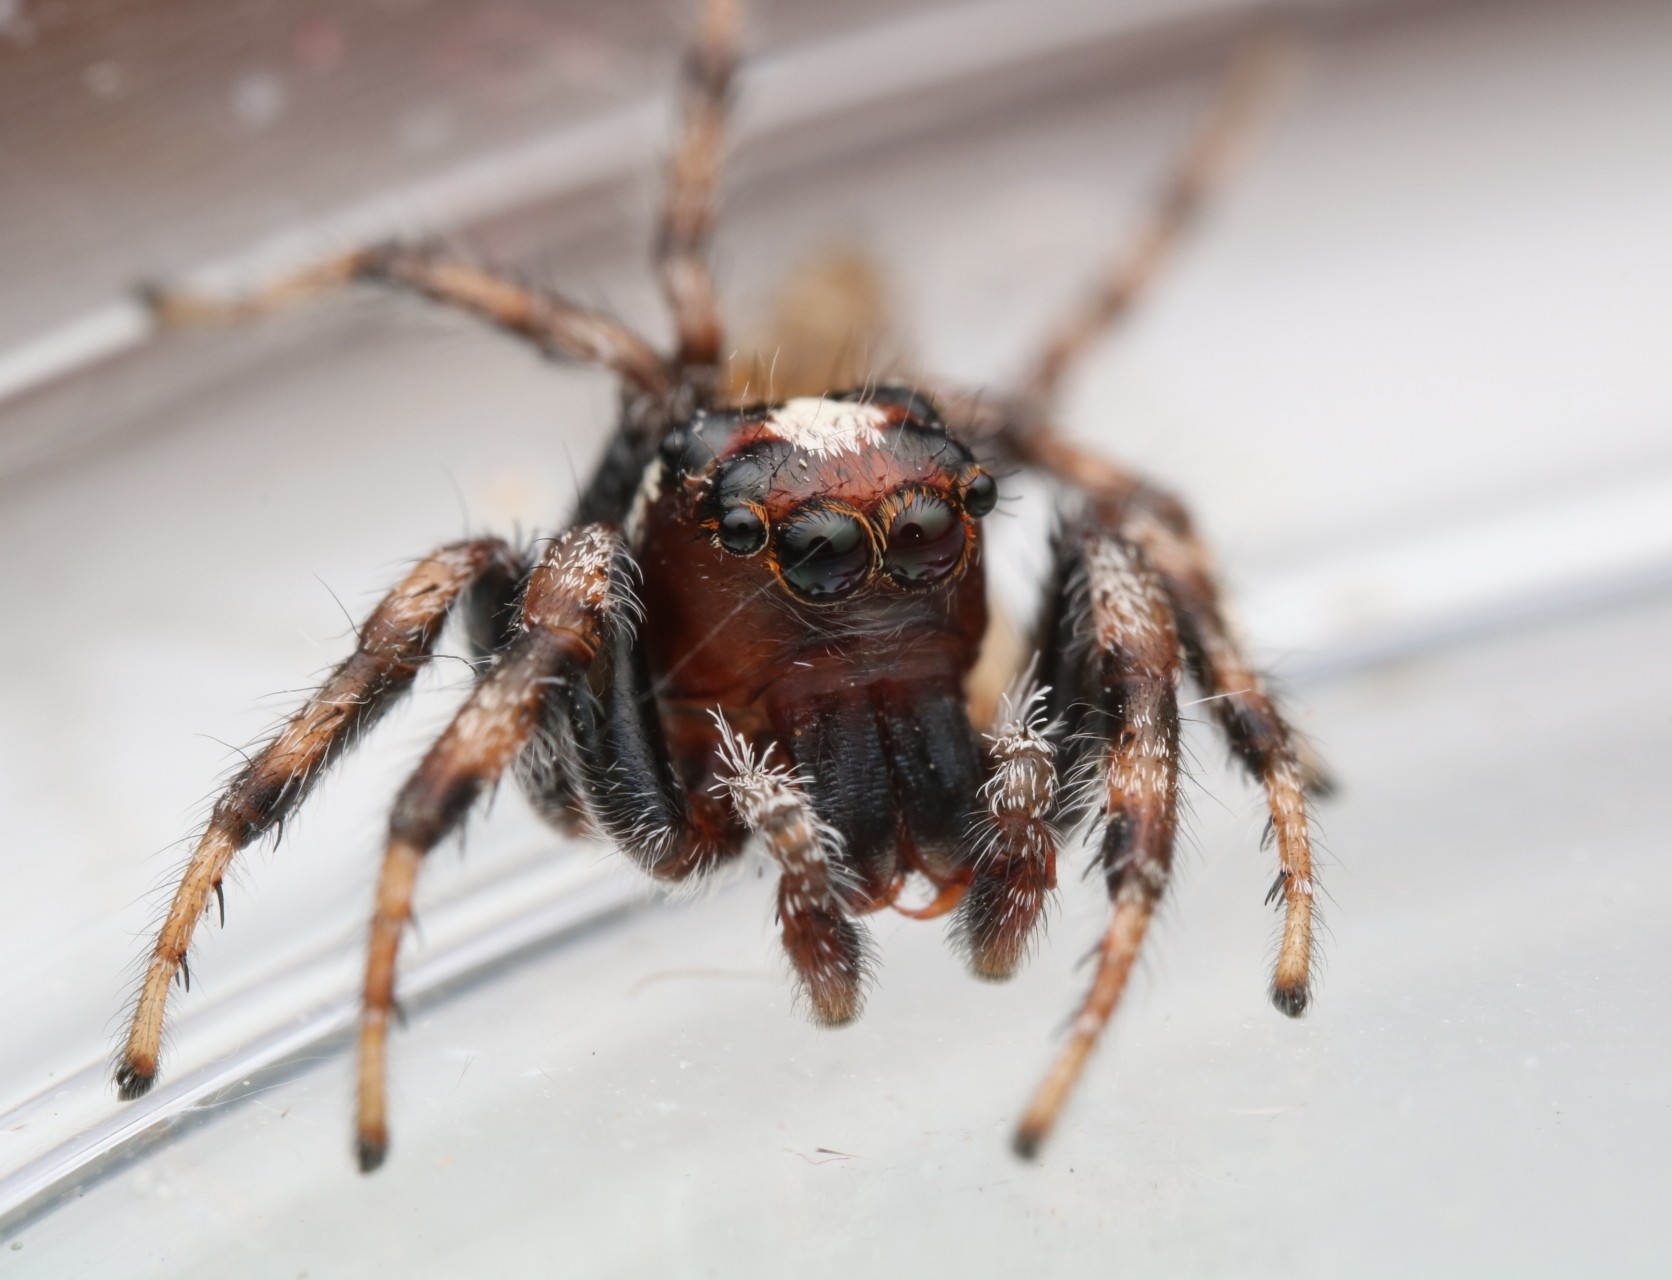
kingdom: Animalia
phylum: Arthropoda
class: Arachnida
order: Araneae
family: Salticidae
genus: Colonus
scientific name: Colonus hesperus
